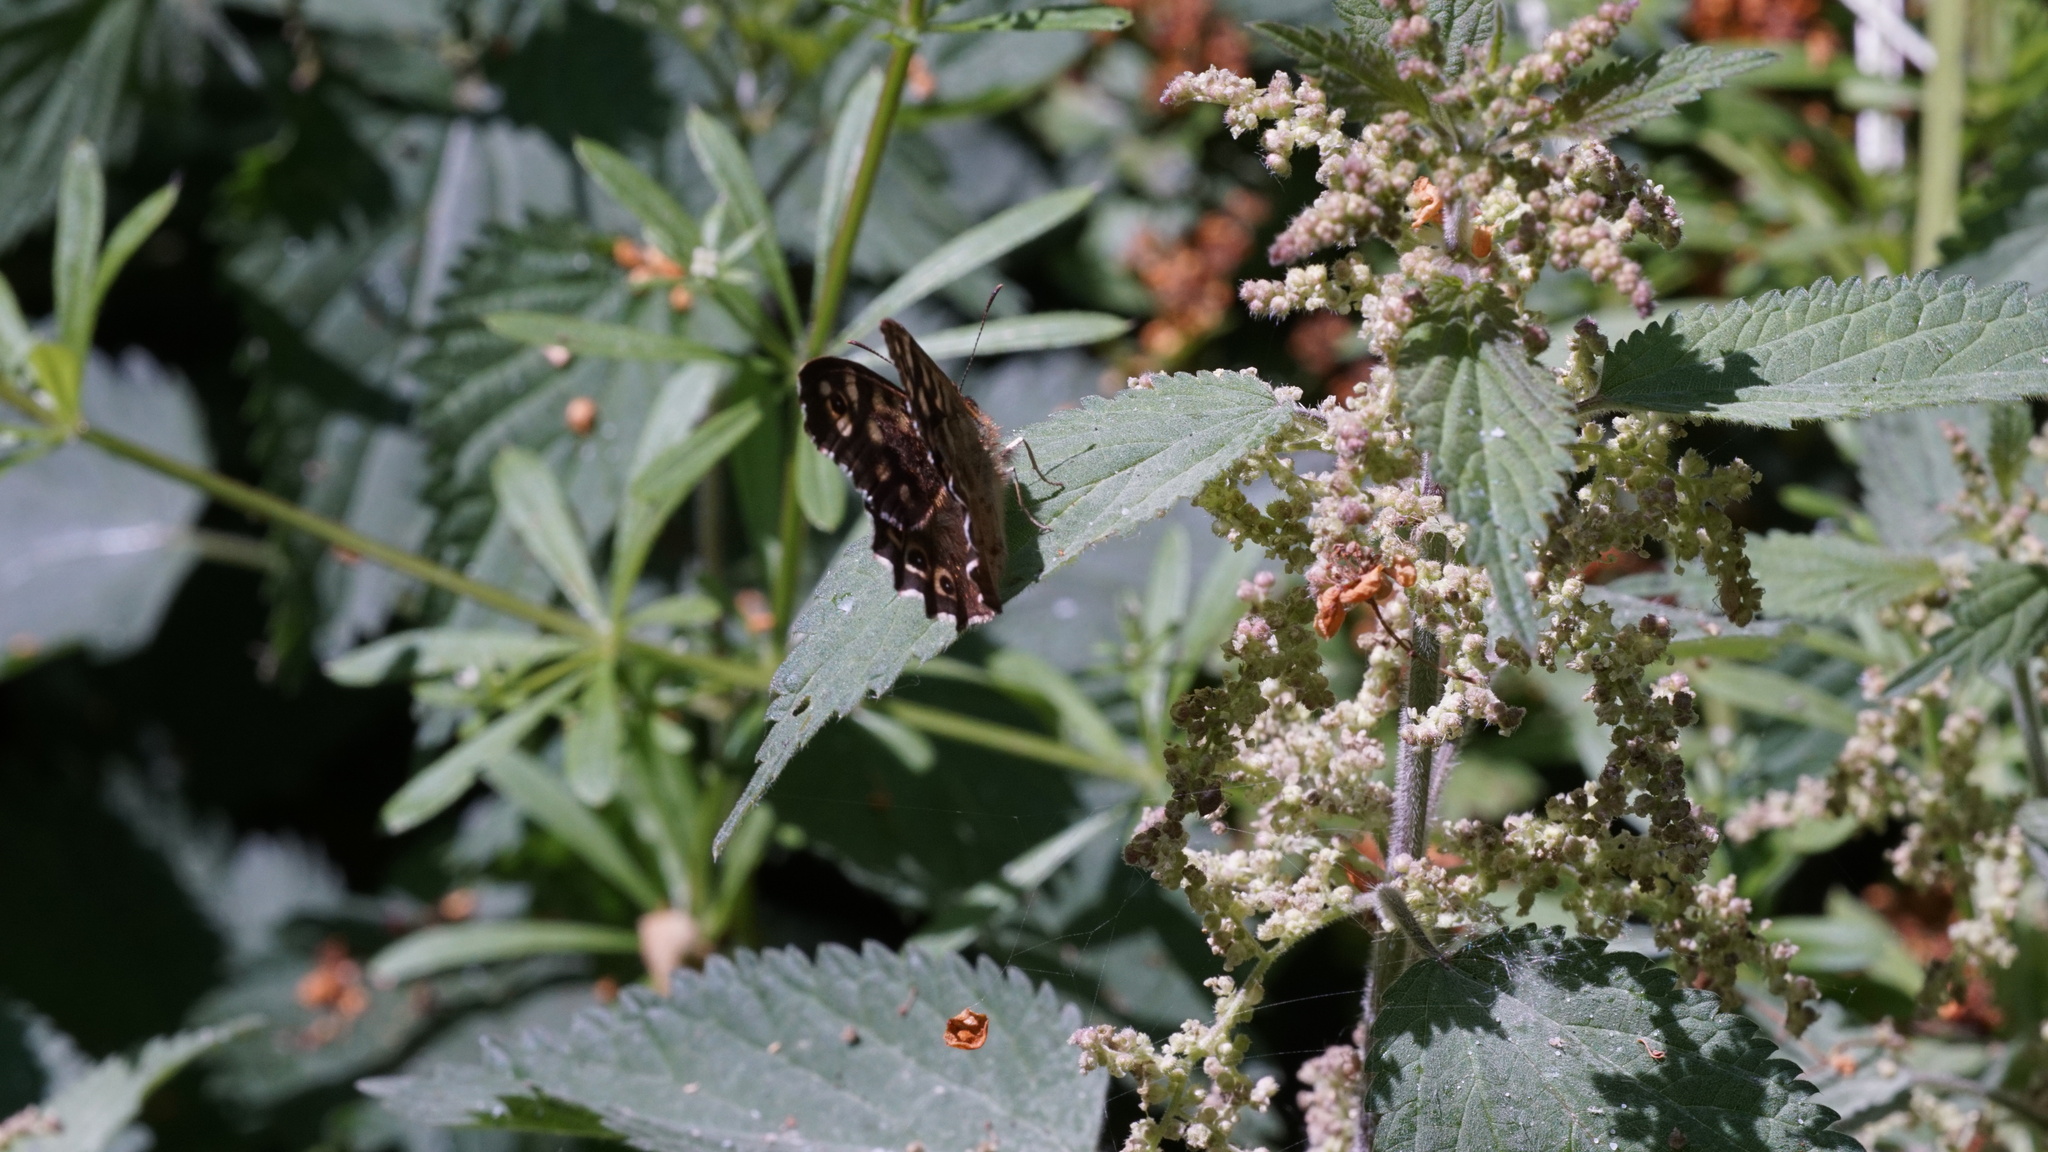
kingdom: Animalia
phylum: Arthropoda
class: Insecta
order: Lepidoptera
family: Nymphalidae
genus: Pararge
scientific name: Pararge aegeria
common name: Speckled wood
